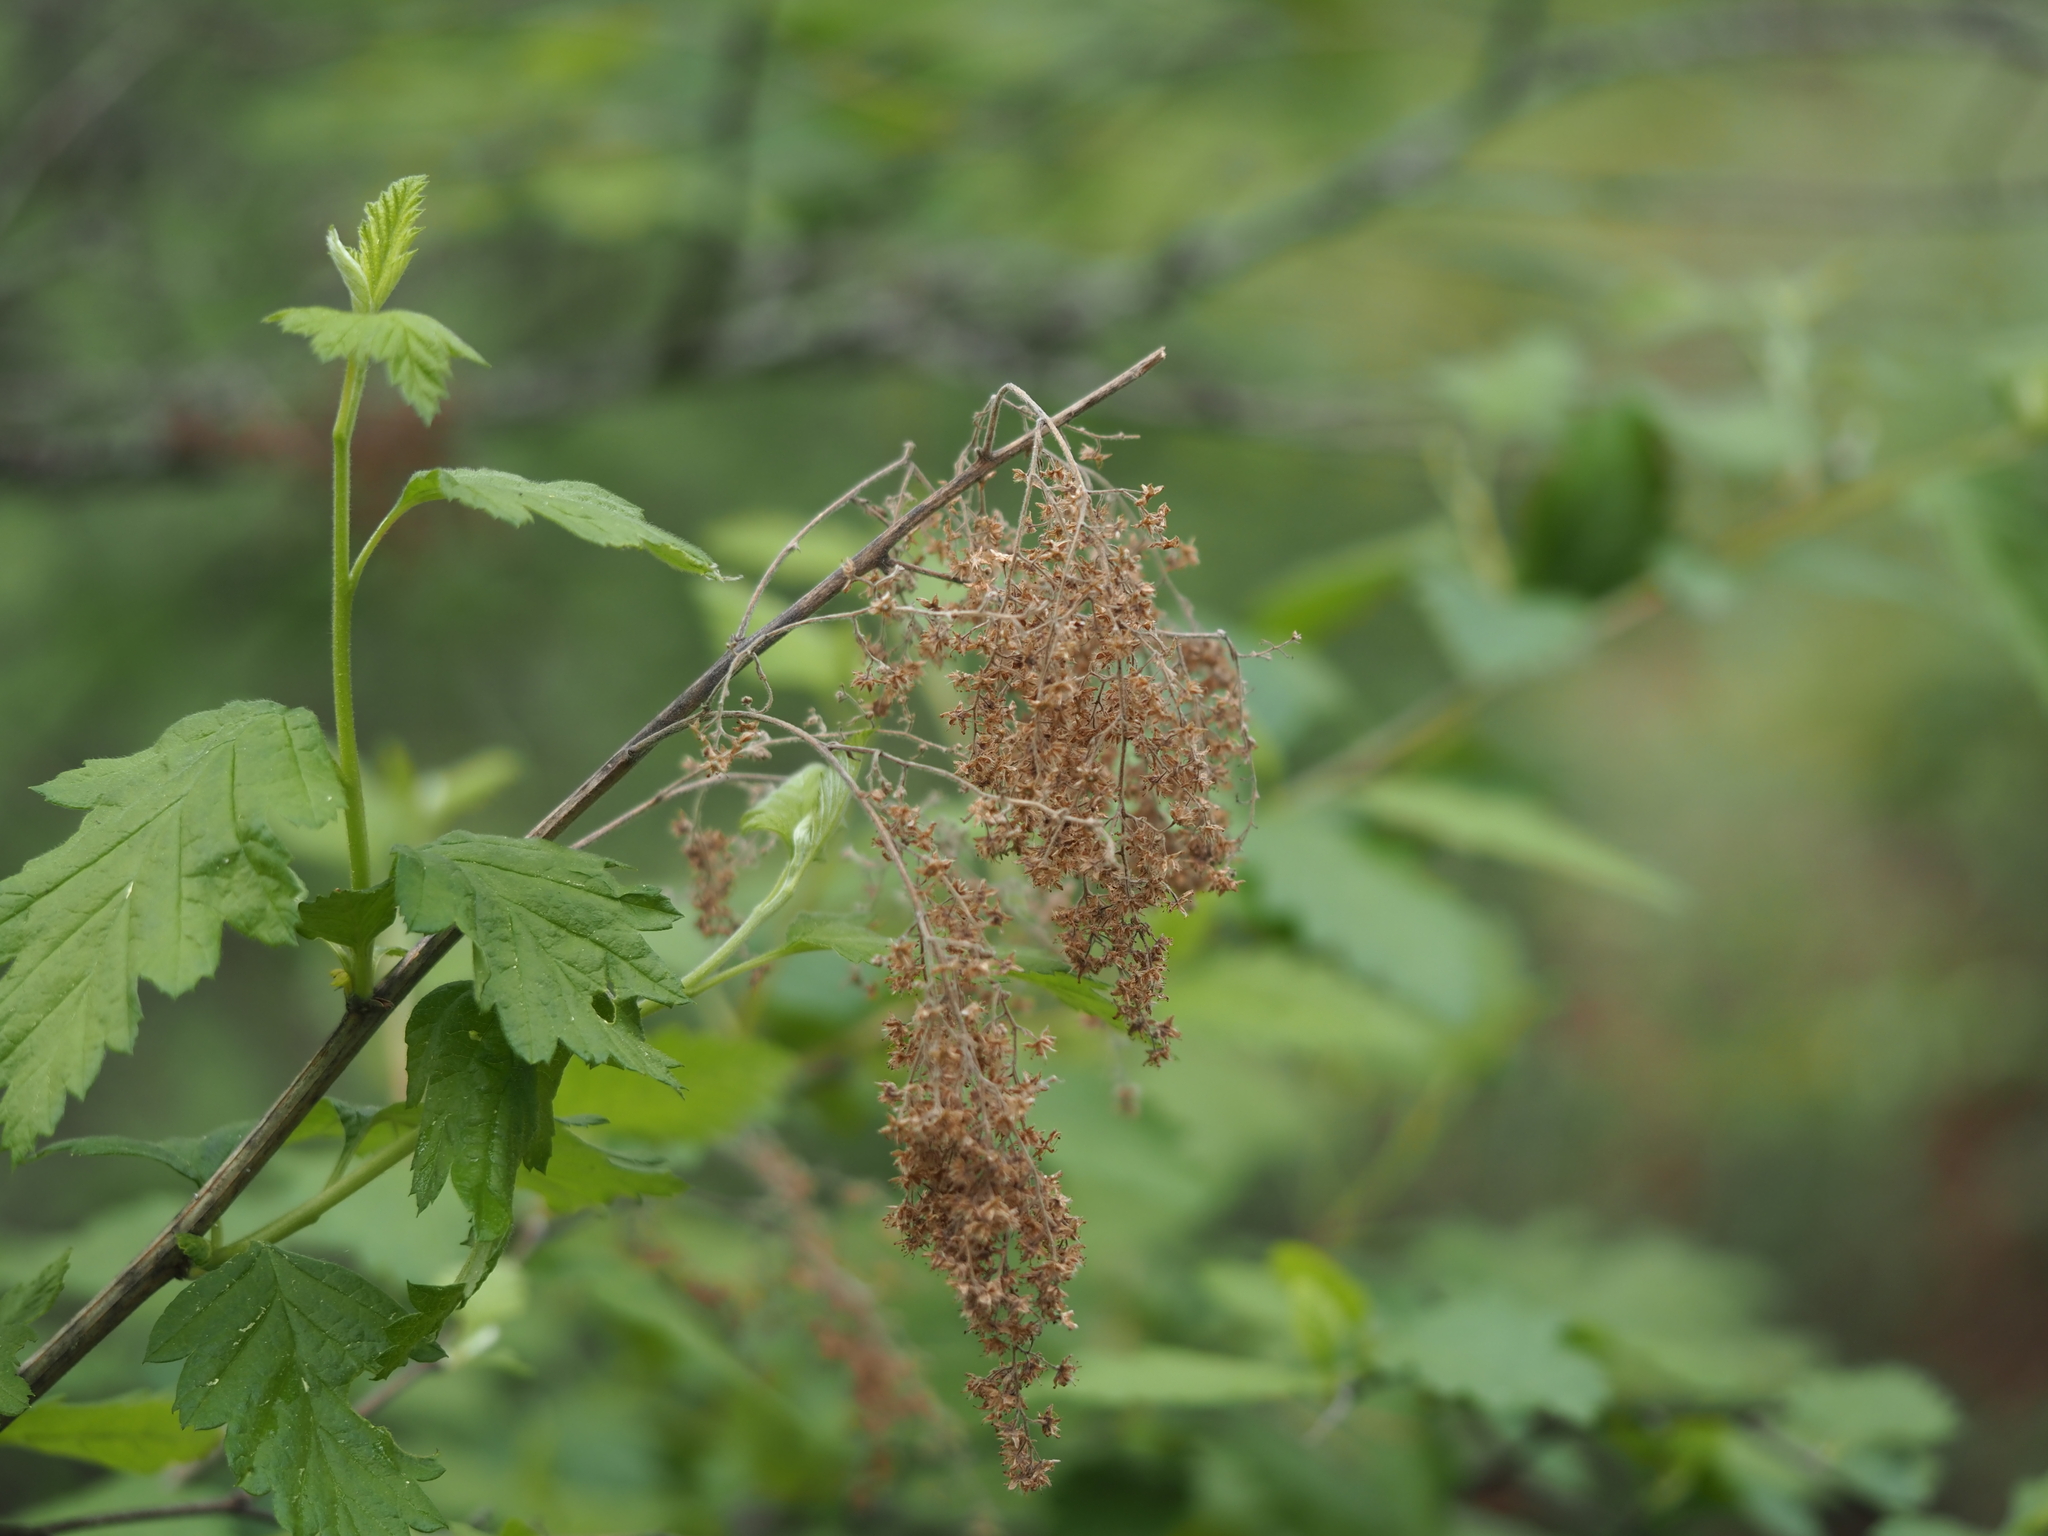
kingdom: Plantae
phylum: Tracheophyta
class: Magnoliopsida
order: Rosales
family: Rosaceae
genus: Holodiscus
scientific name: Holodiscus discolor
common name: Oceanspray
